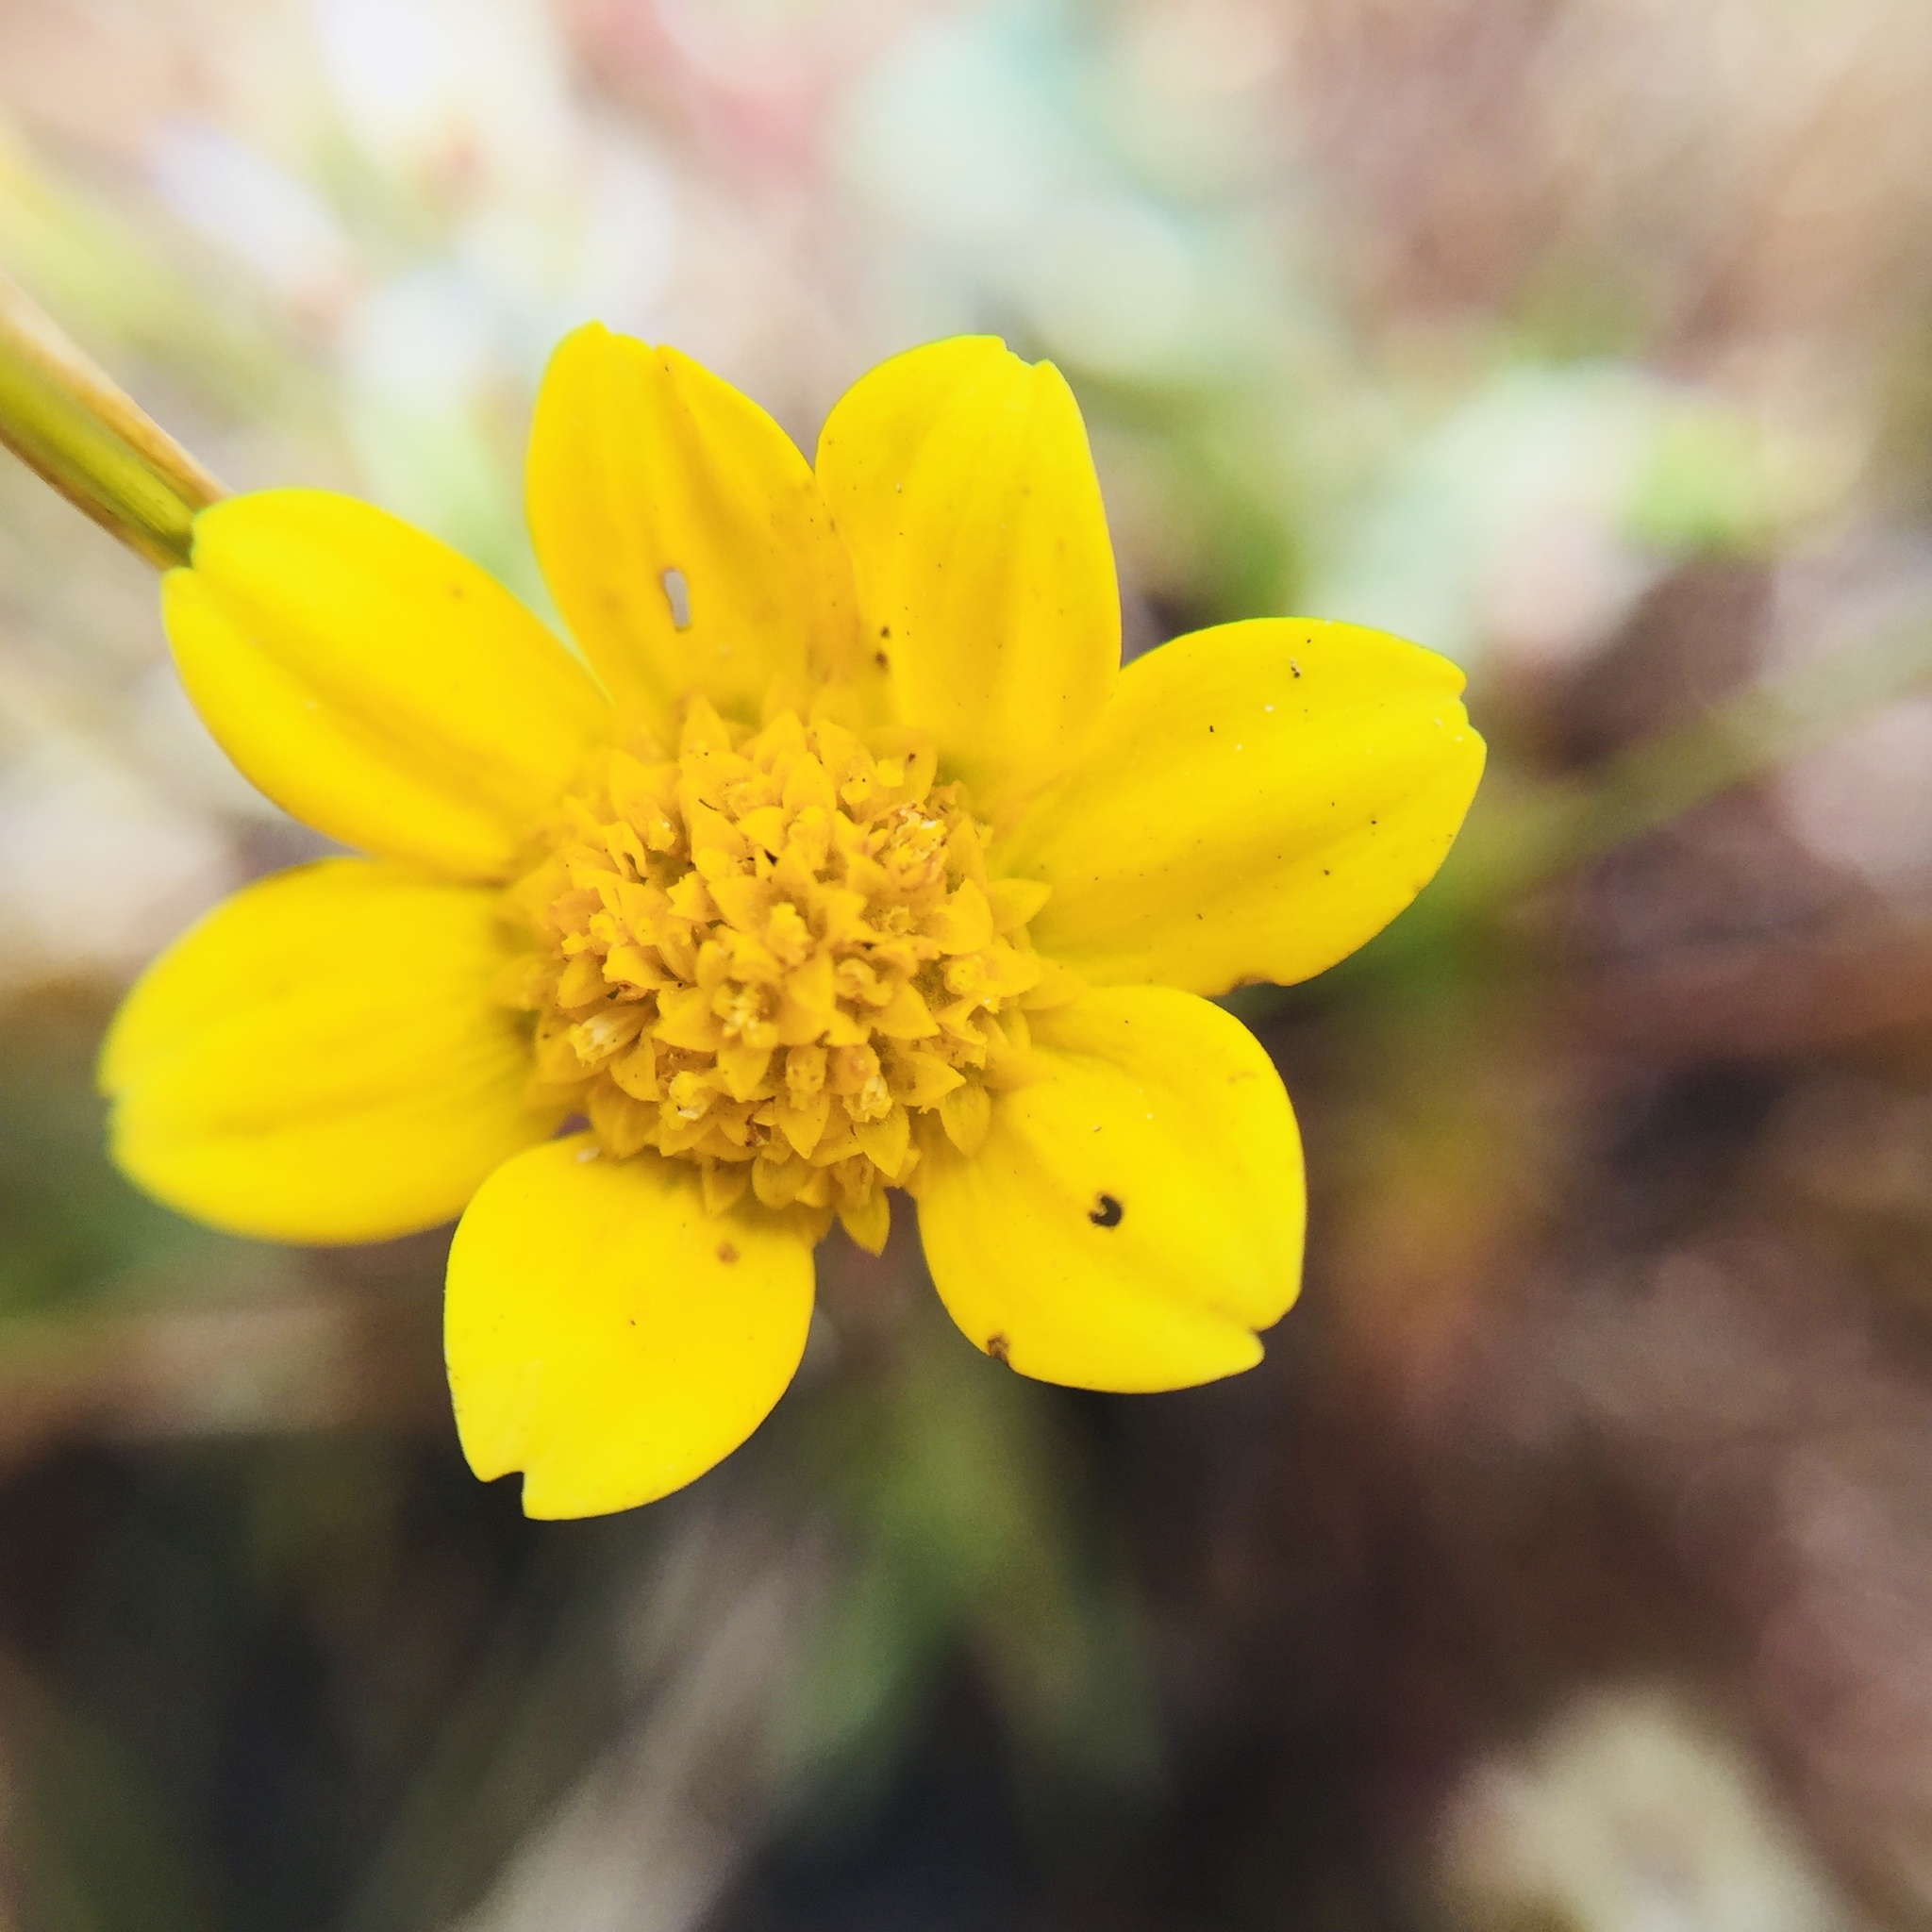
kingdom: Plantae
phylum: Tracheophyta
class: Magnoliopsida
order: Asterales
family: Asteraceae
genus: Lasthenia
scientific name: Lasthenia californica
